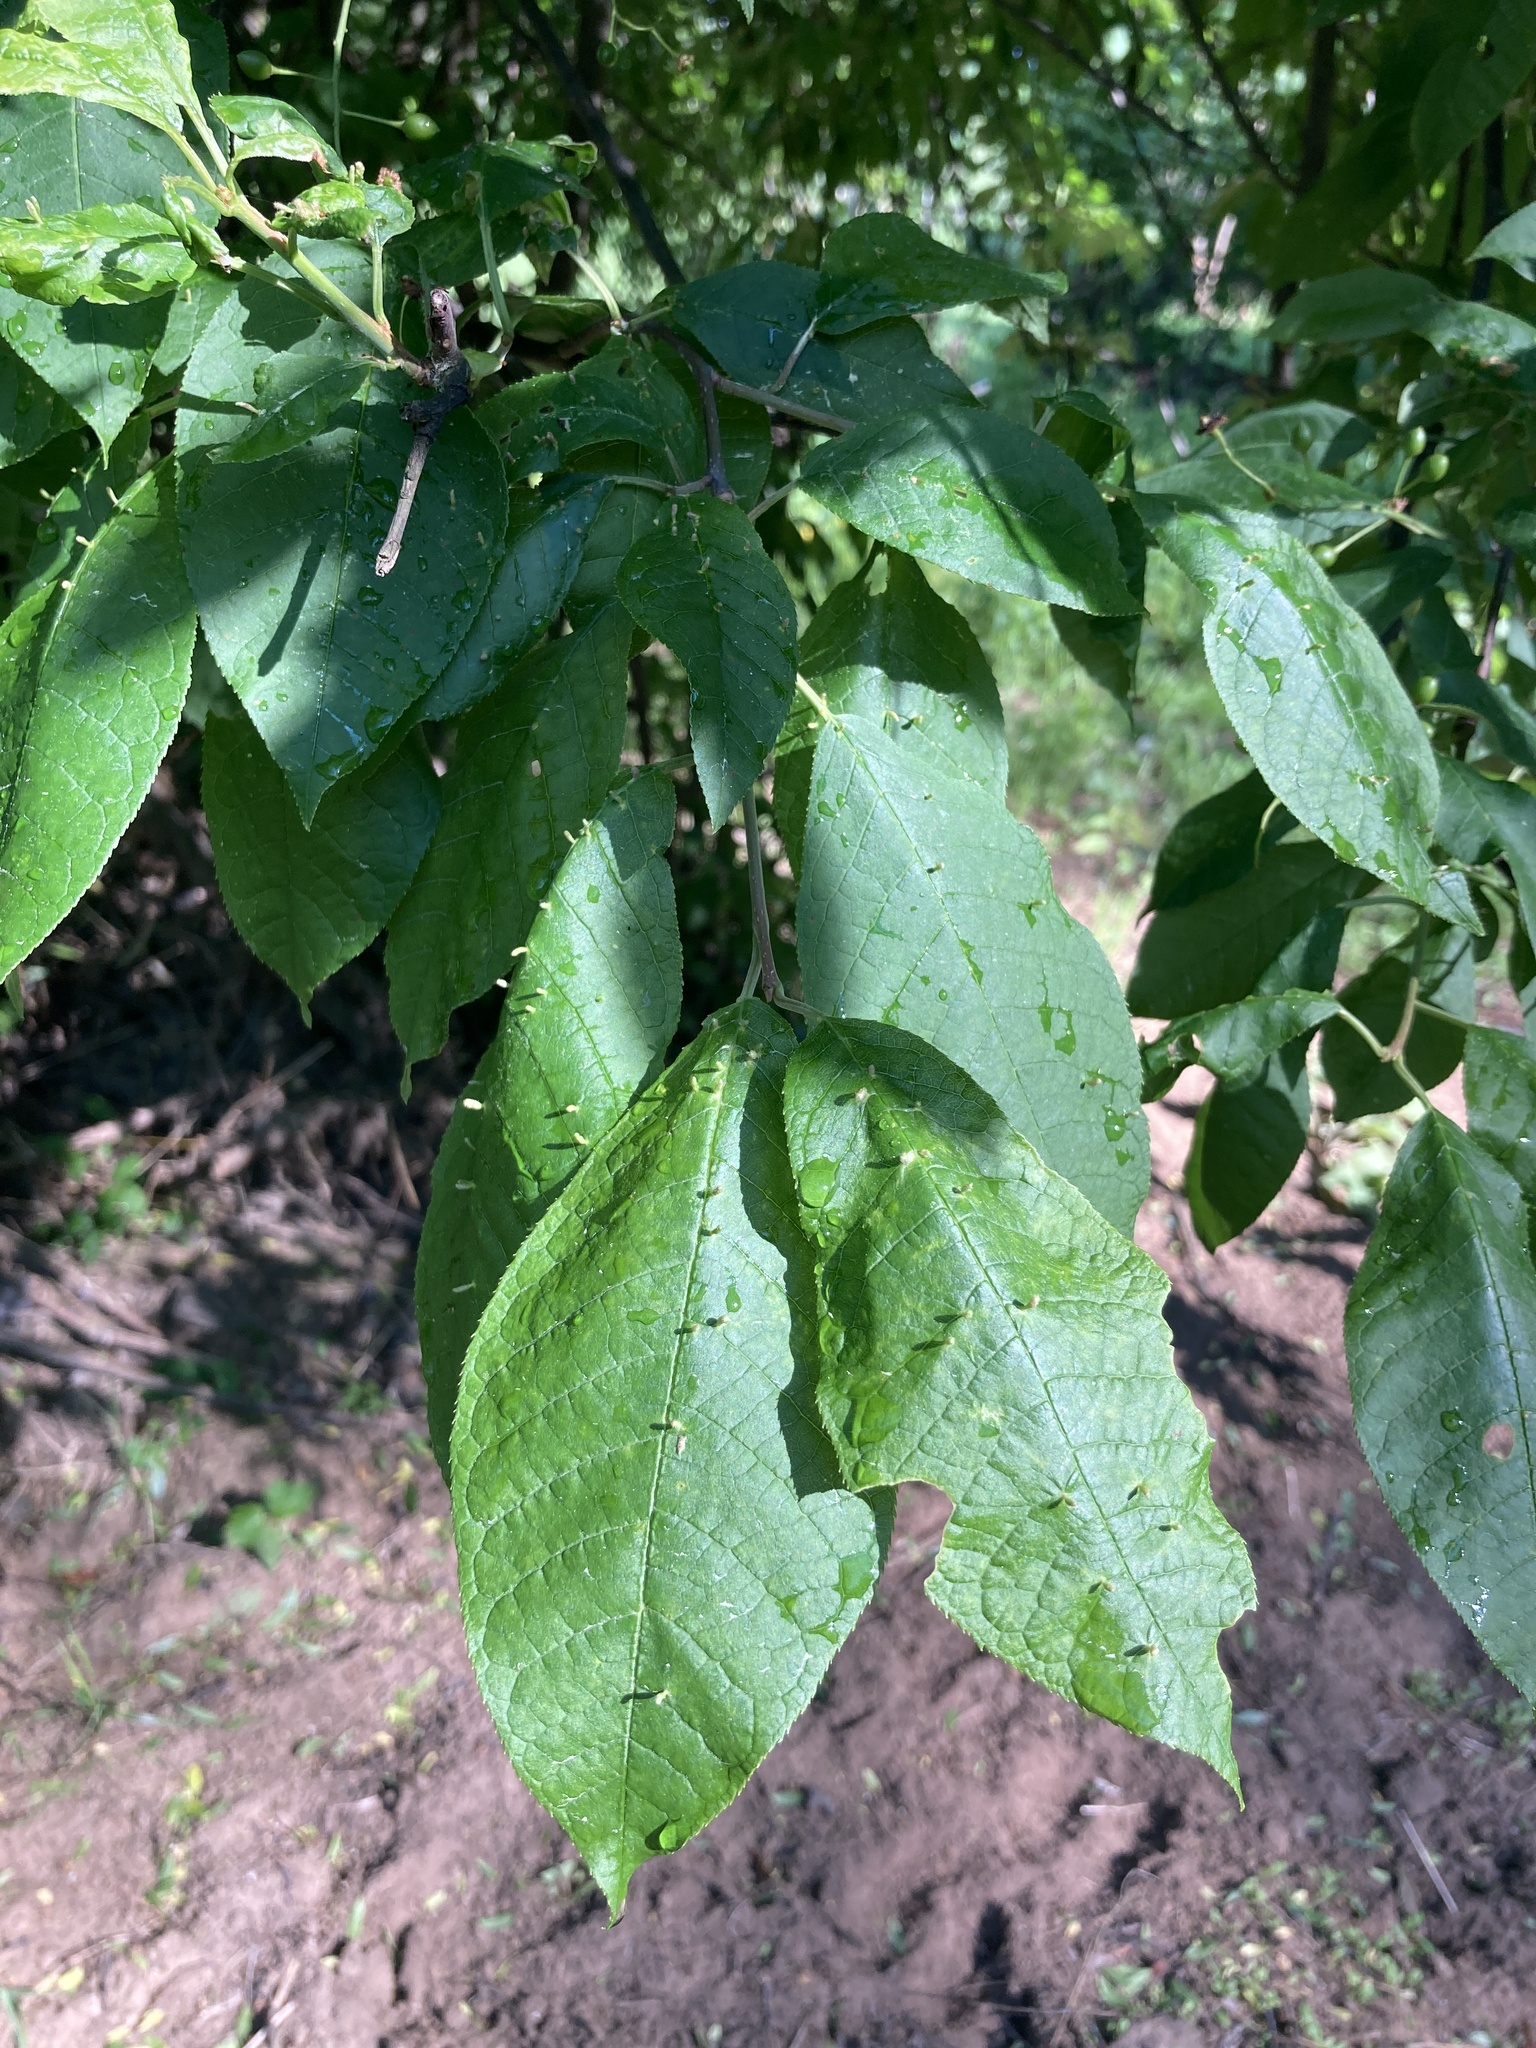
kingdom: Plantae
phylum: Tracheophyta
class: Magnoliopsida
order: Rosales
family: Rosaceae
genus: Prunus
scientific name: Prunus padus
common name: Bird cherry
